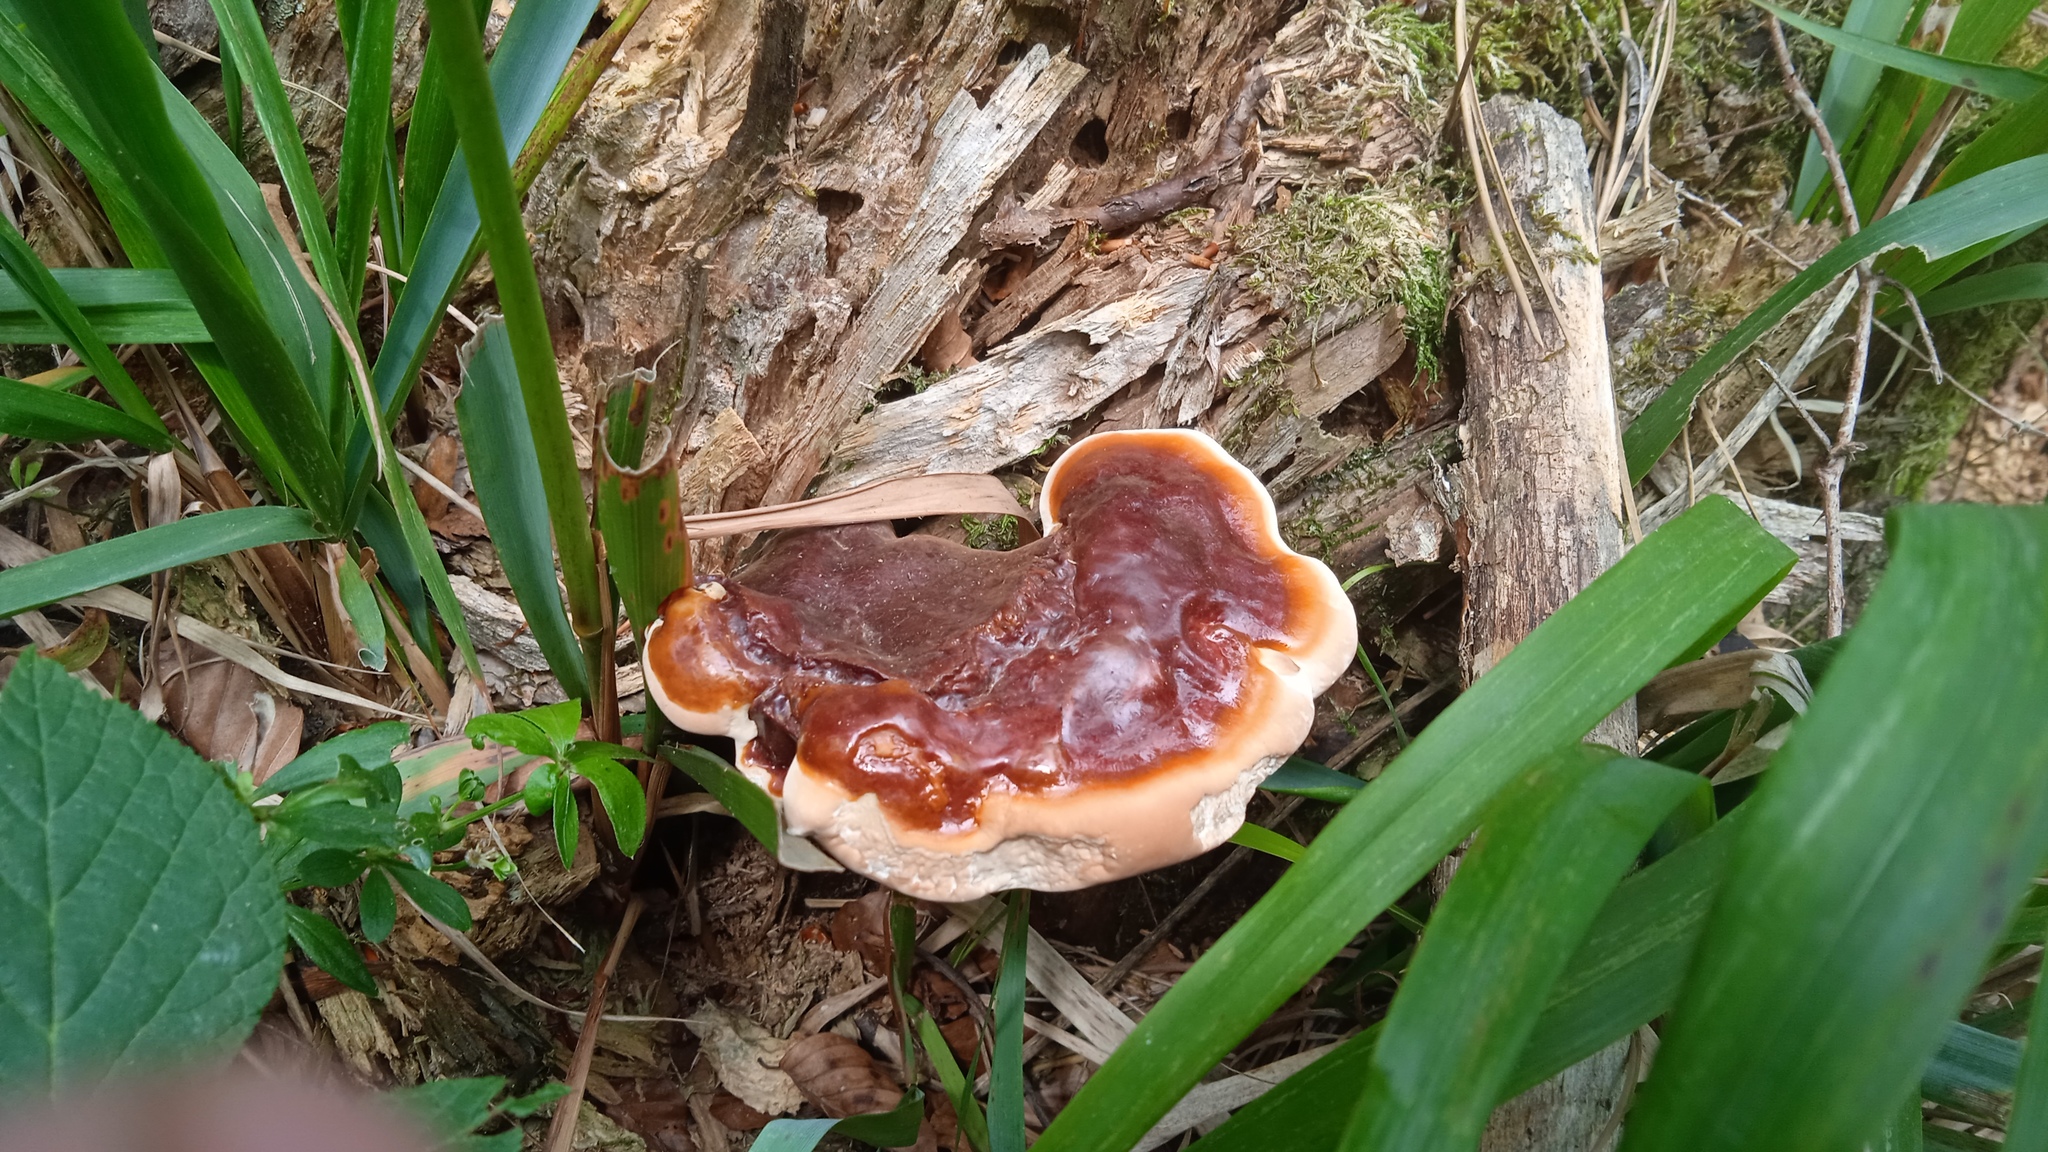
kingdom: Fungi
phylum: Basidiomycota
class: Agaricomycetes
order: Polyporales
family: Polyporaceae
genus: Ganoderma
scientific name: Ganoderma lucidum
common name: Lacquered bracket
